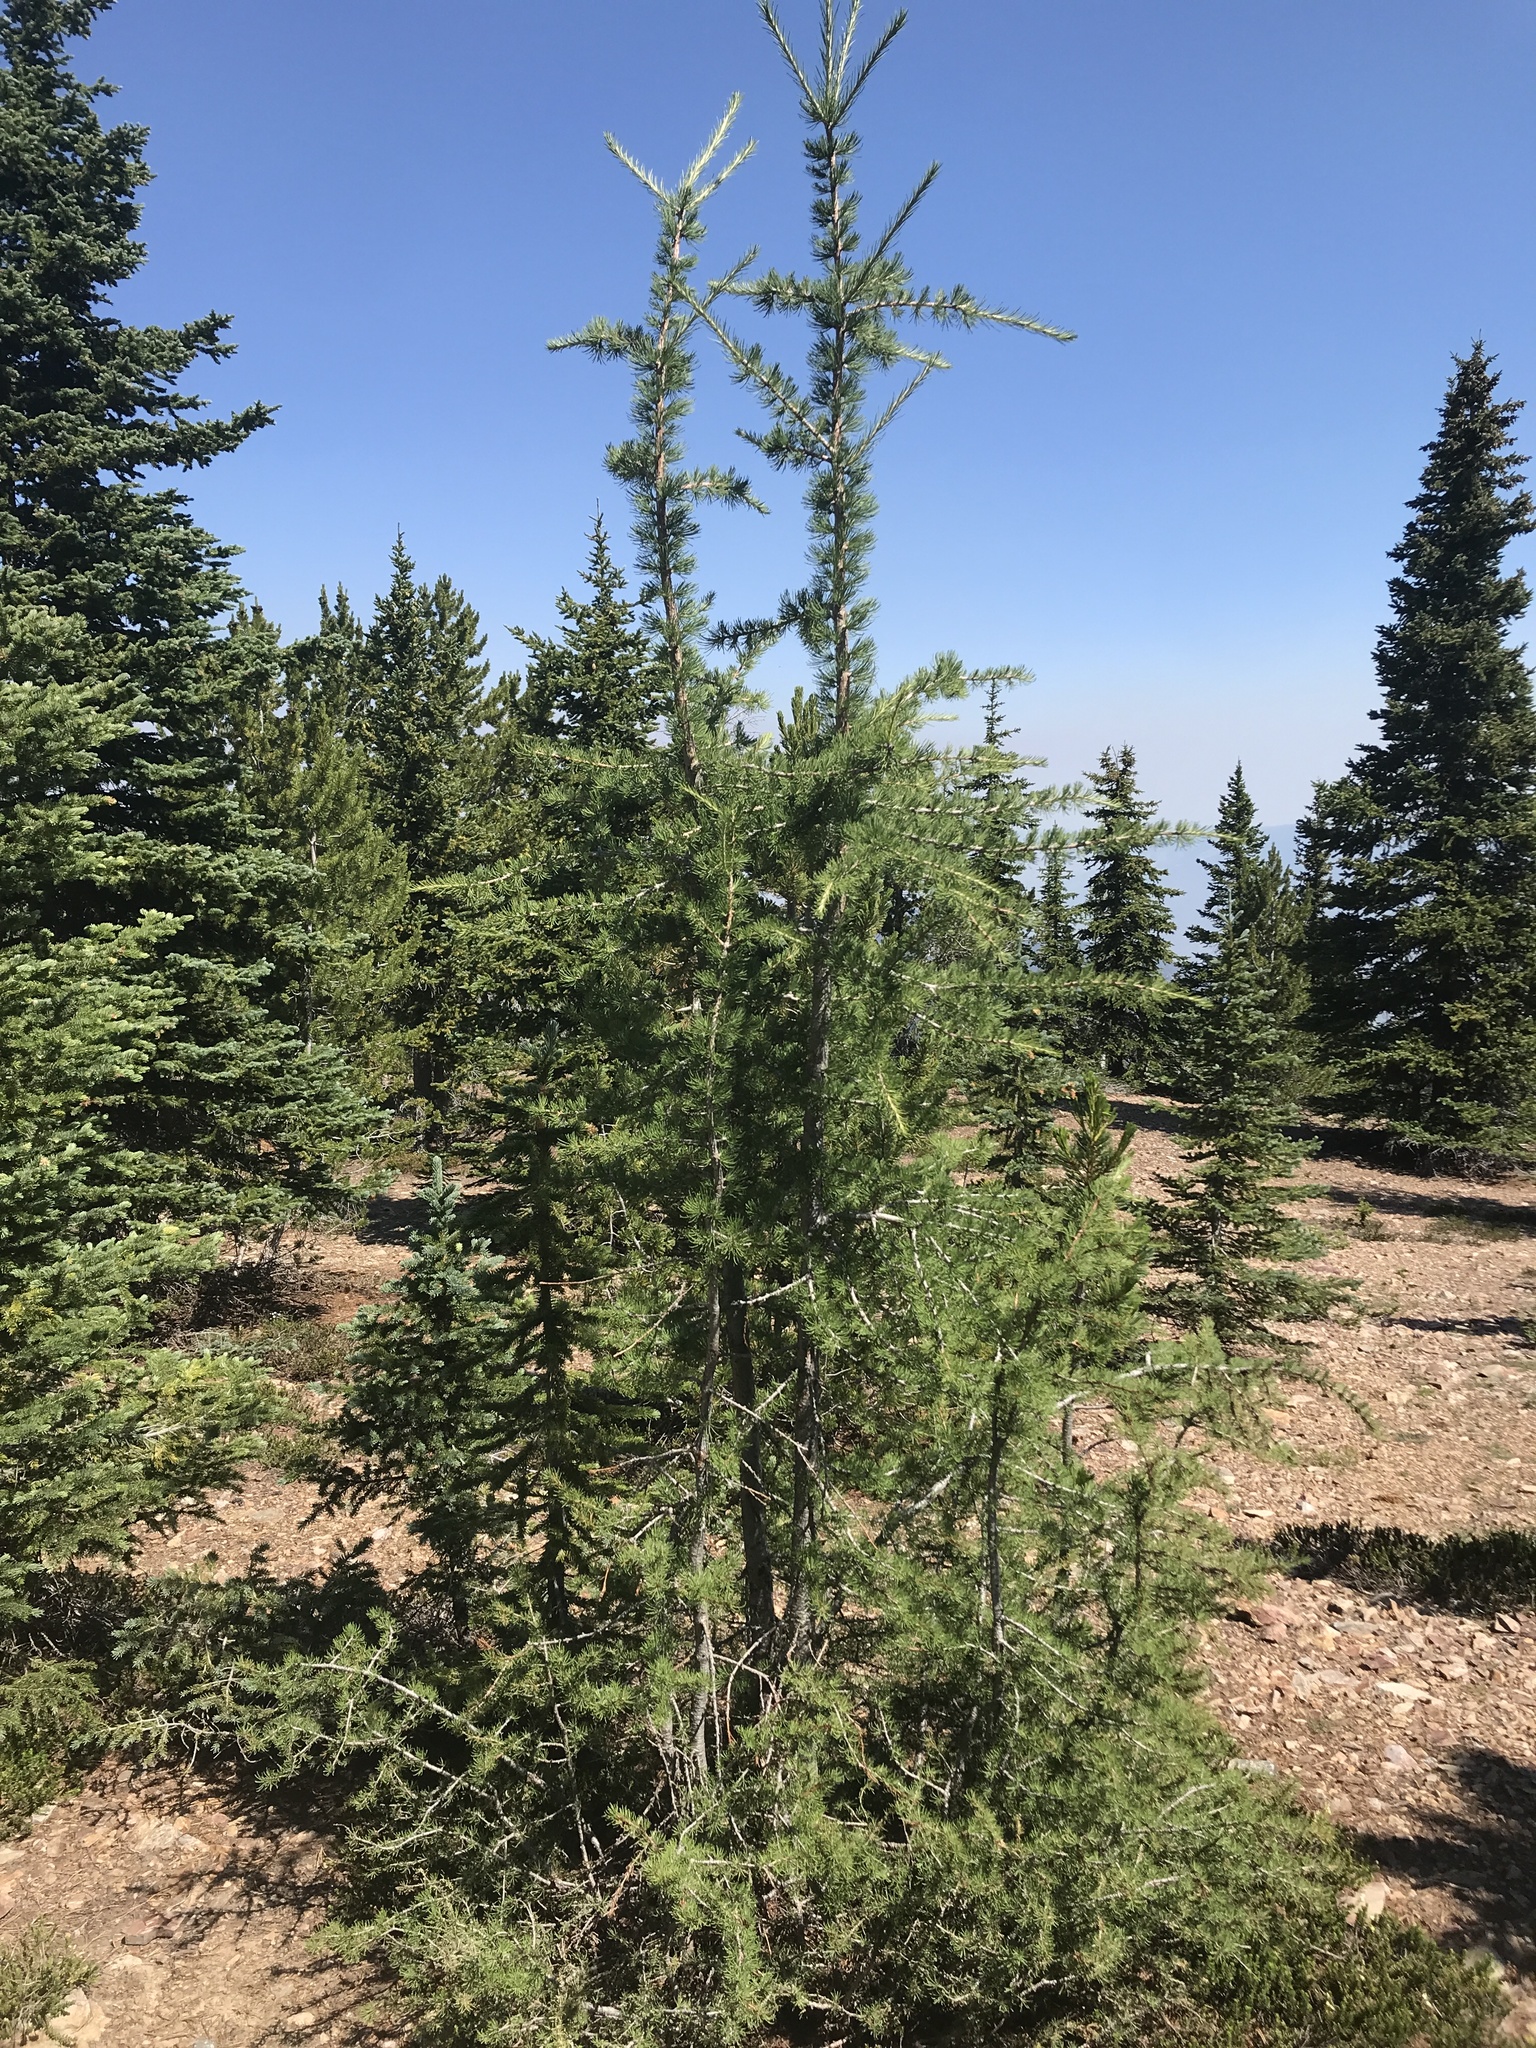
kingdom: Plantae
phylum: Tracheophyta
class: Pinopsida
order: Pinales
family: Pinaceae
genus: Larix
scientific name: Larix lyallii
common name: Alpine larch
